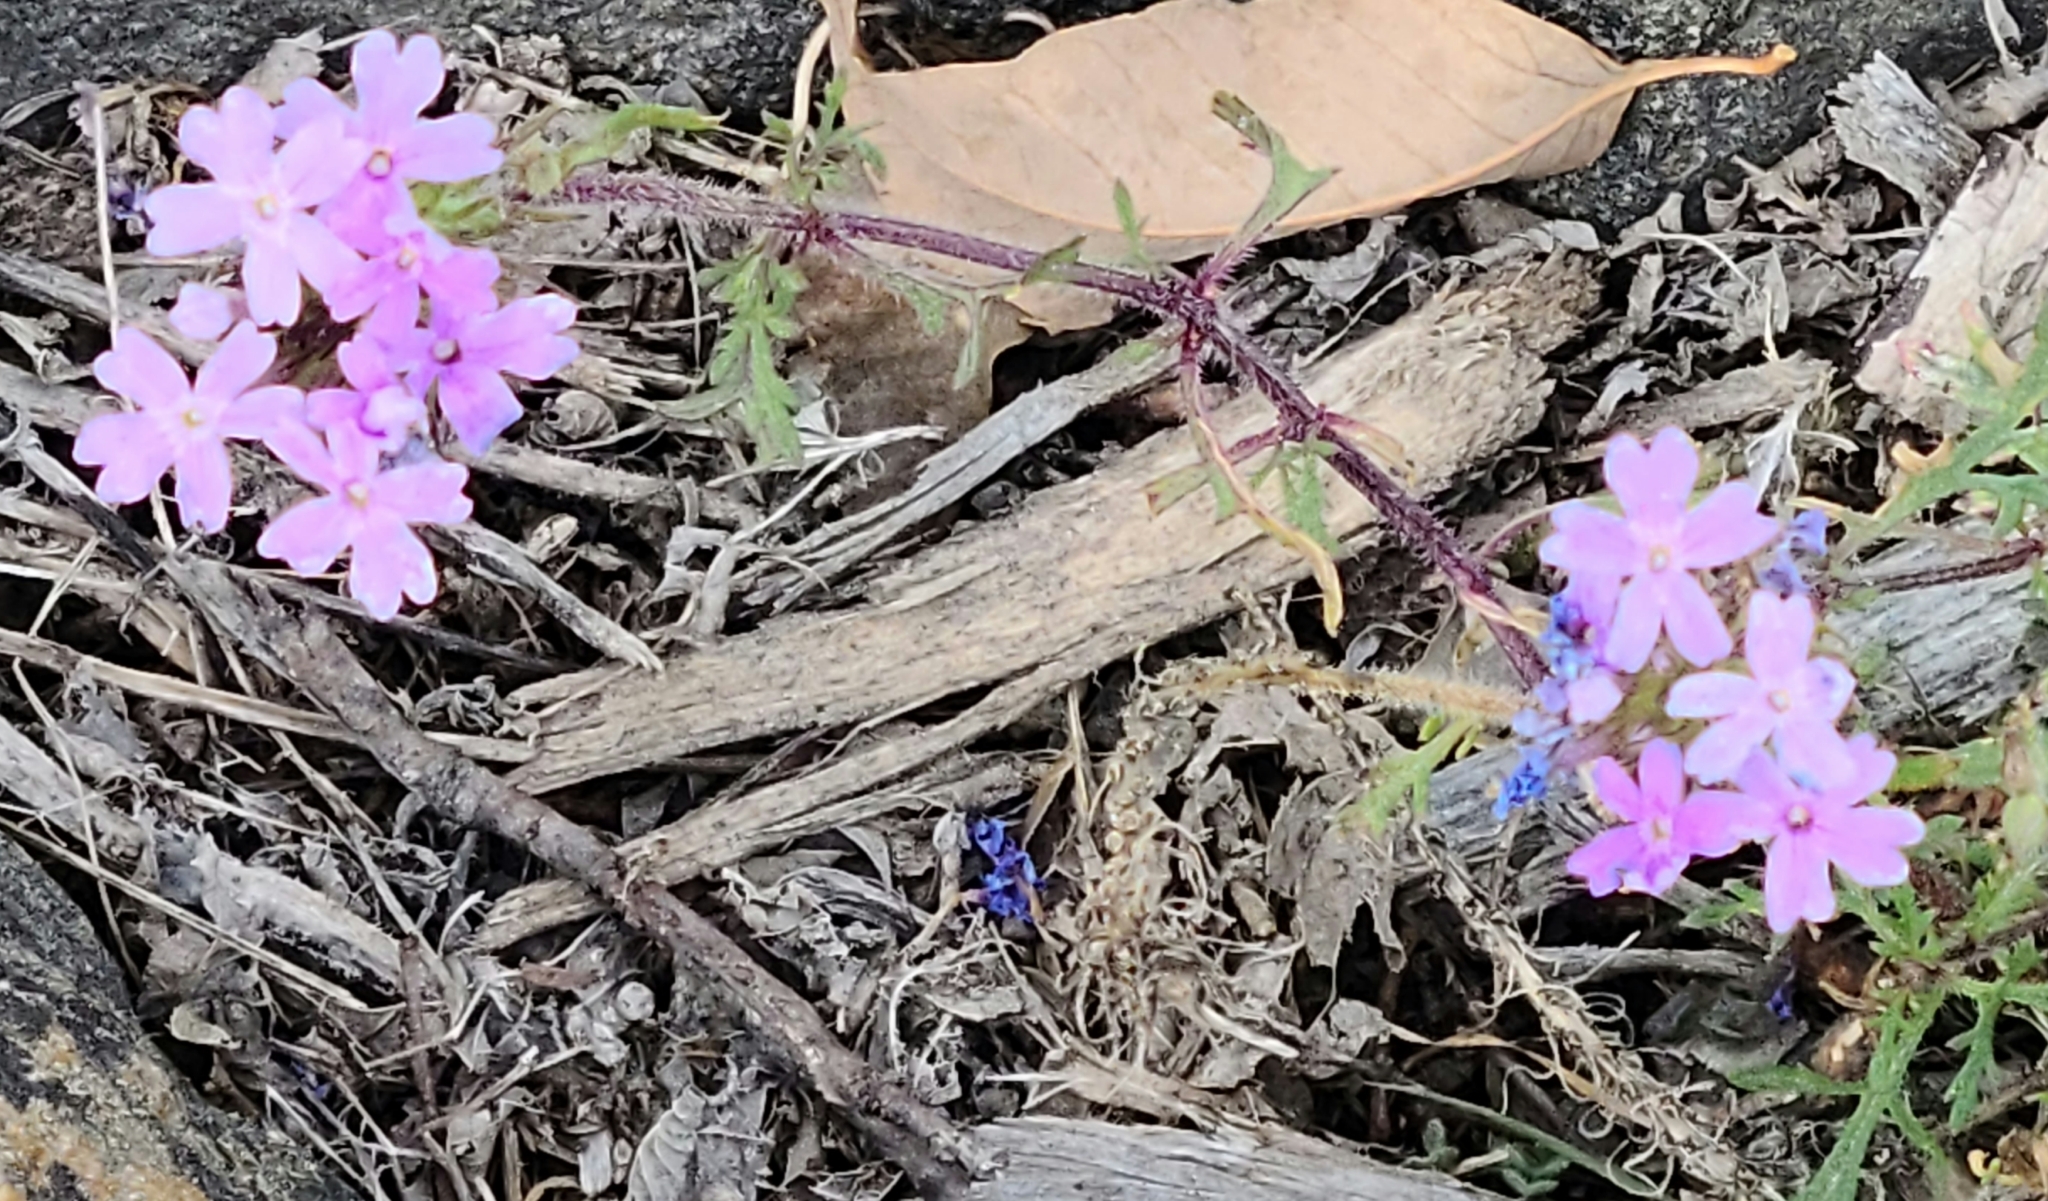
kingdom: Plantae
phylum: Tracheophyta
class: Magnoliopsida
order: Lamiales
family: Verbenaceae
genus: Verbena
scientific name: Verbena bipinnatifida
